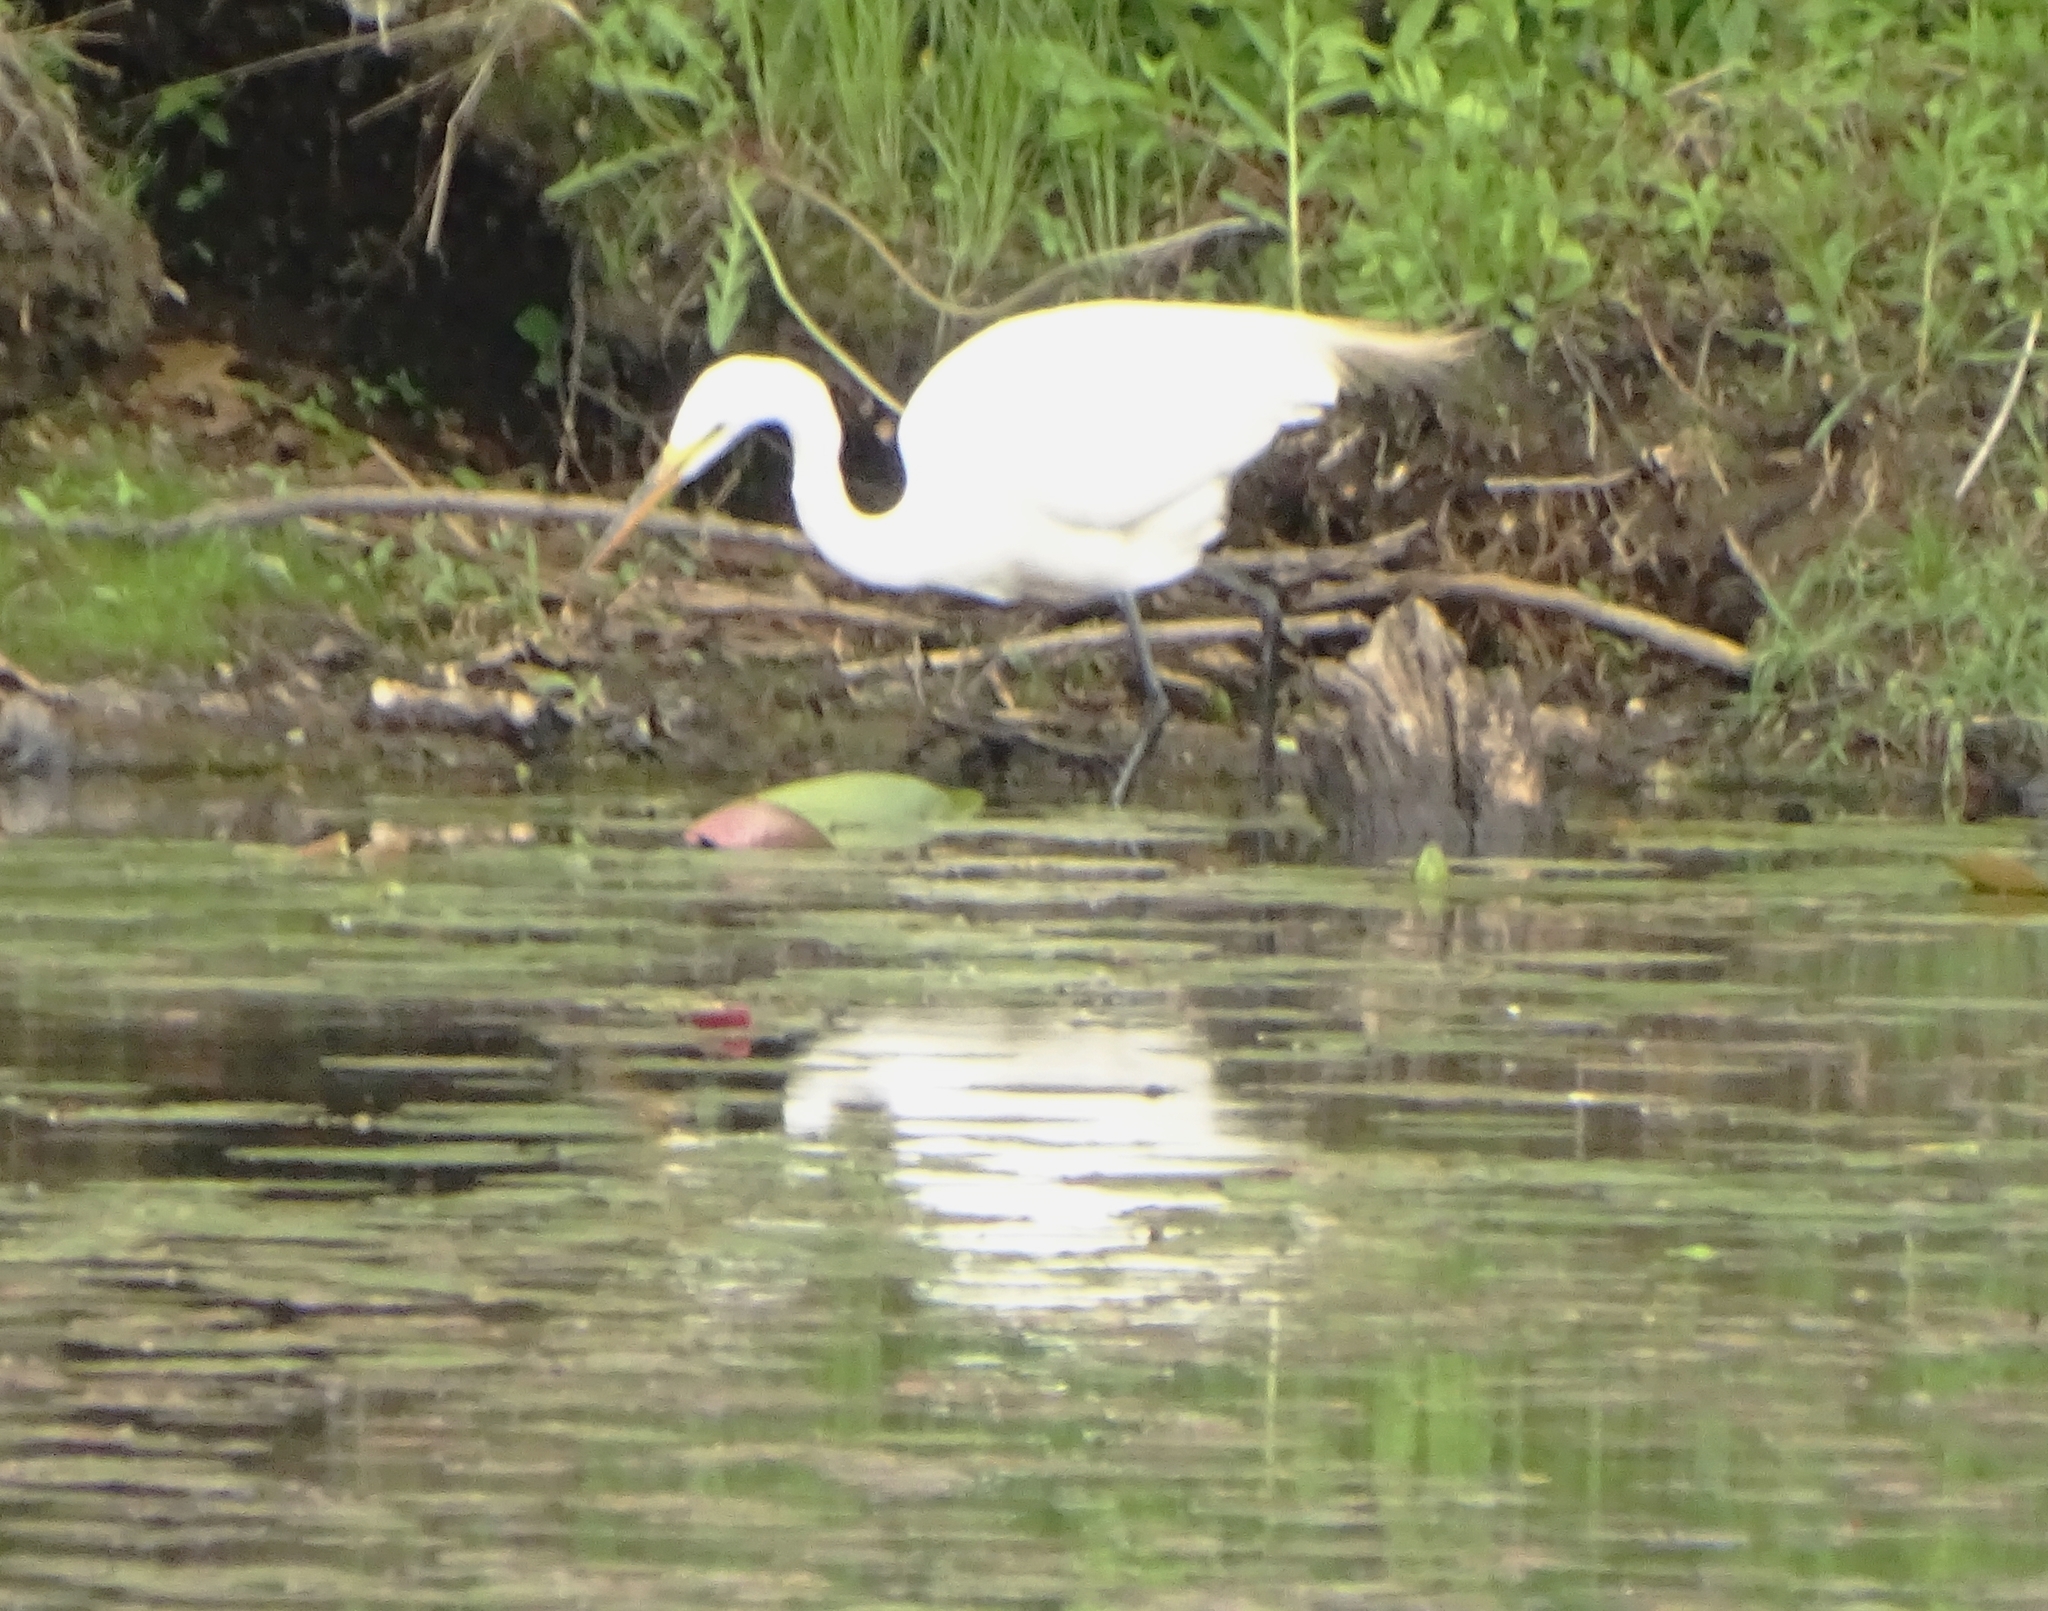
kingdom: Animalia
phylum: Chordata
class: Aves
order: Pelecaniformes
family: Ardeidae
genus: Ardea
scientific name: Ardea alba
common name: Great egret
